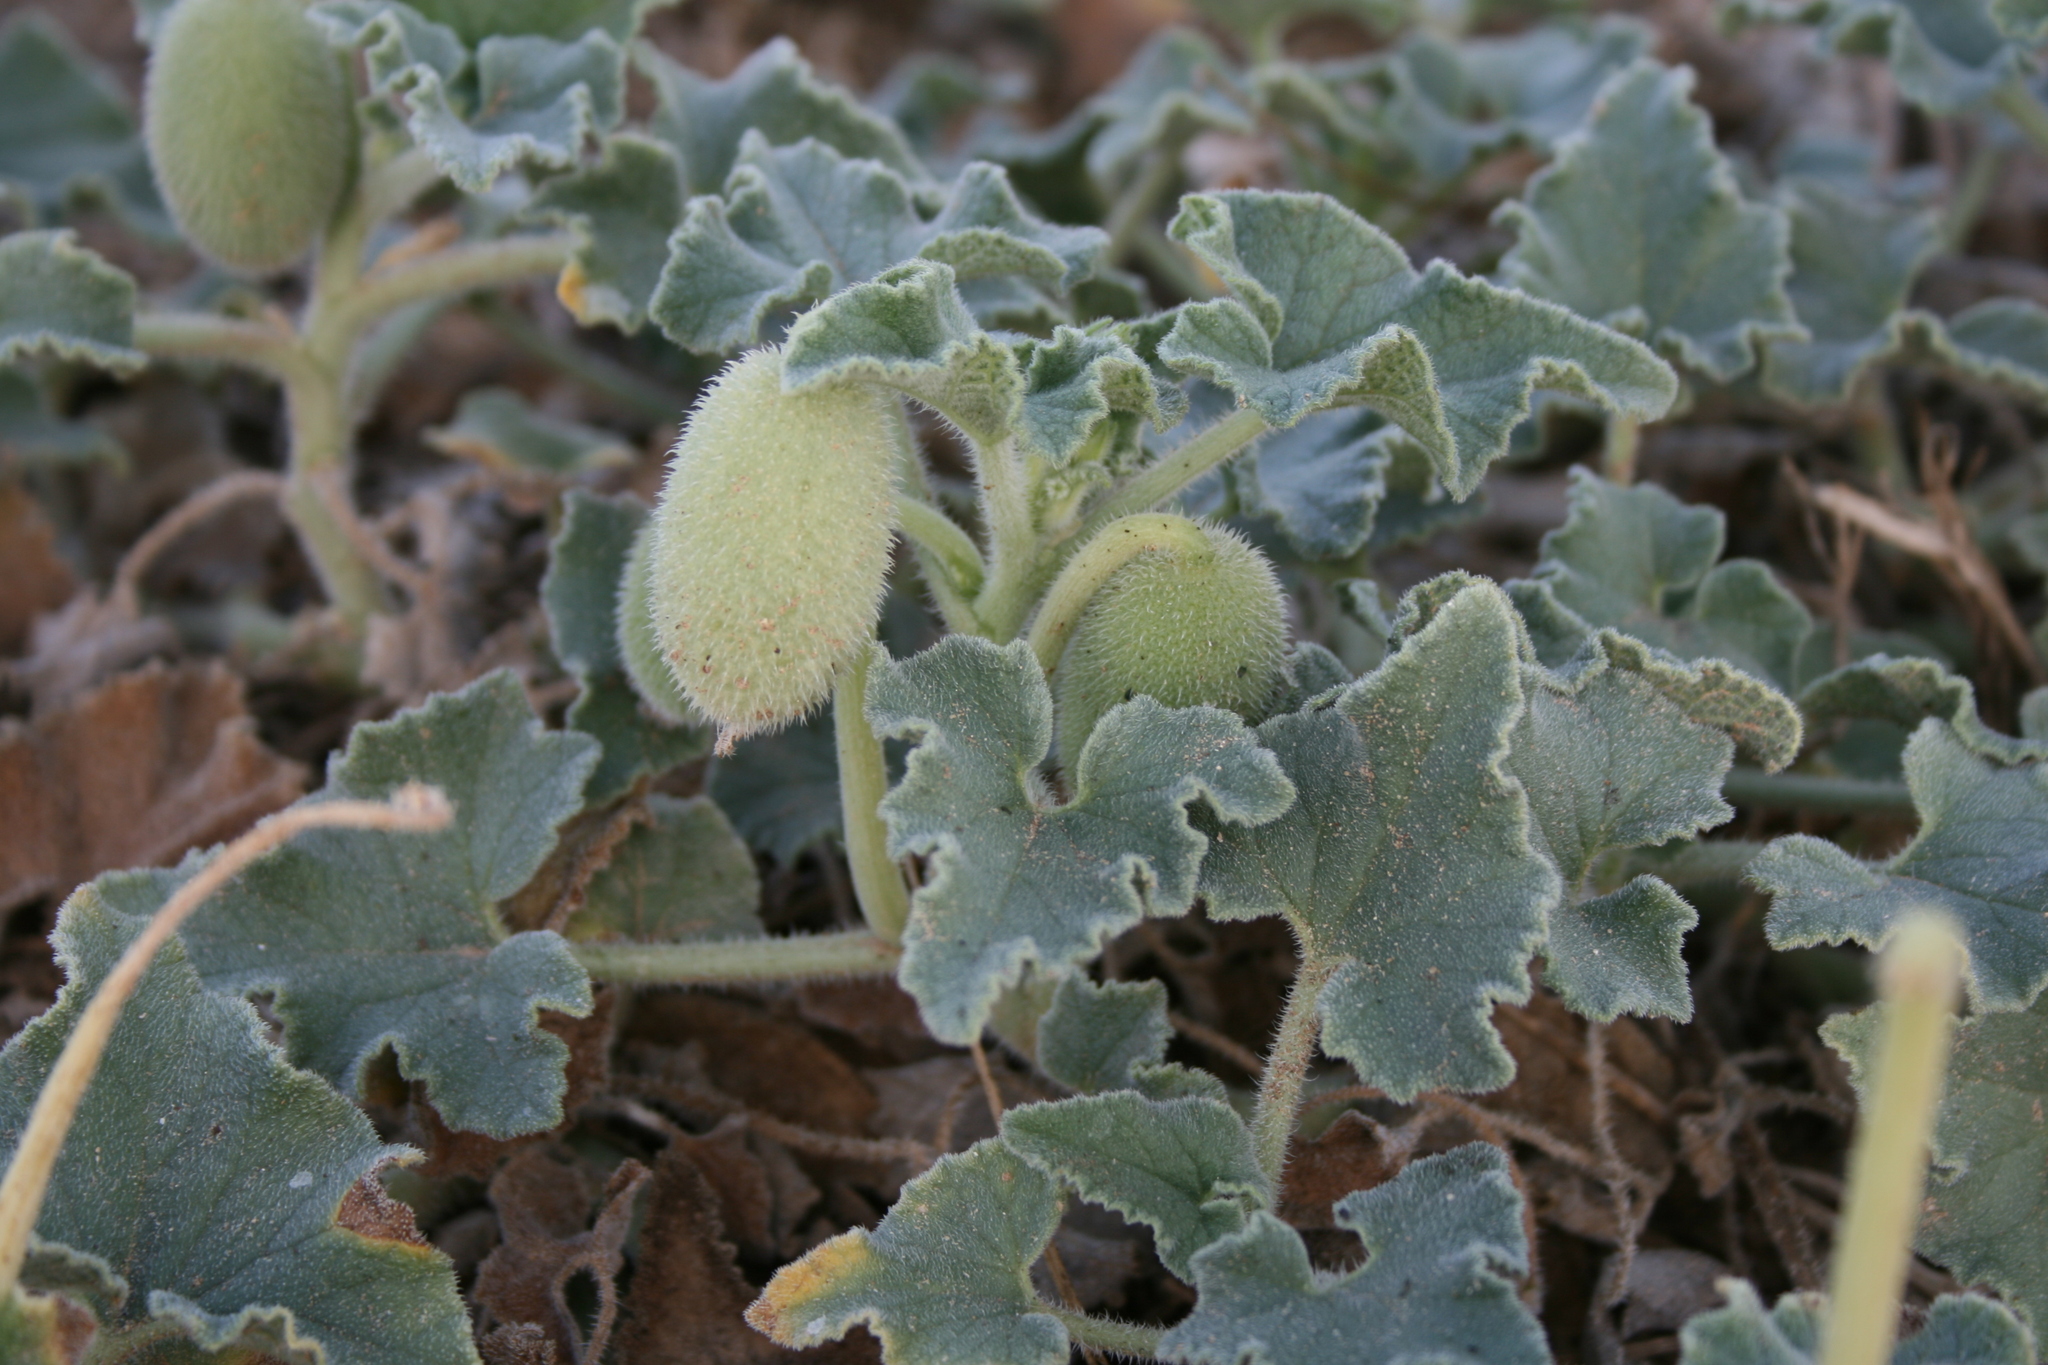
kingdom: Plantae
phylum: Tracheophyta
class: Magnoliopsida
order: Cucurbitales
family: Cucurbitaceae
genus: Ecballium
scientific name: Ecballium elaterium
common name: Squirting cucumber
